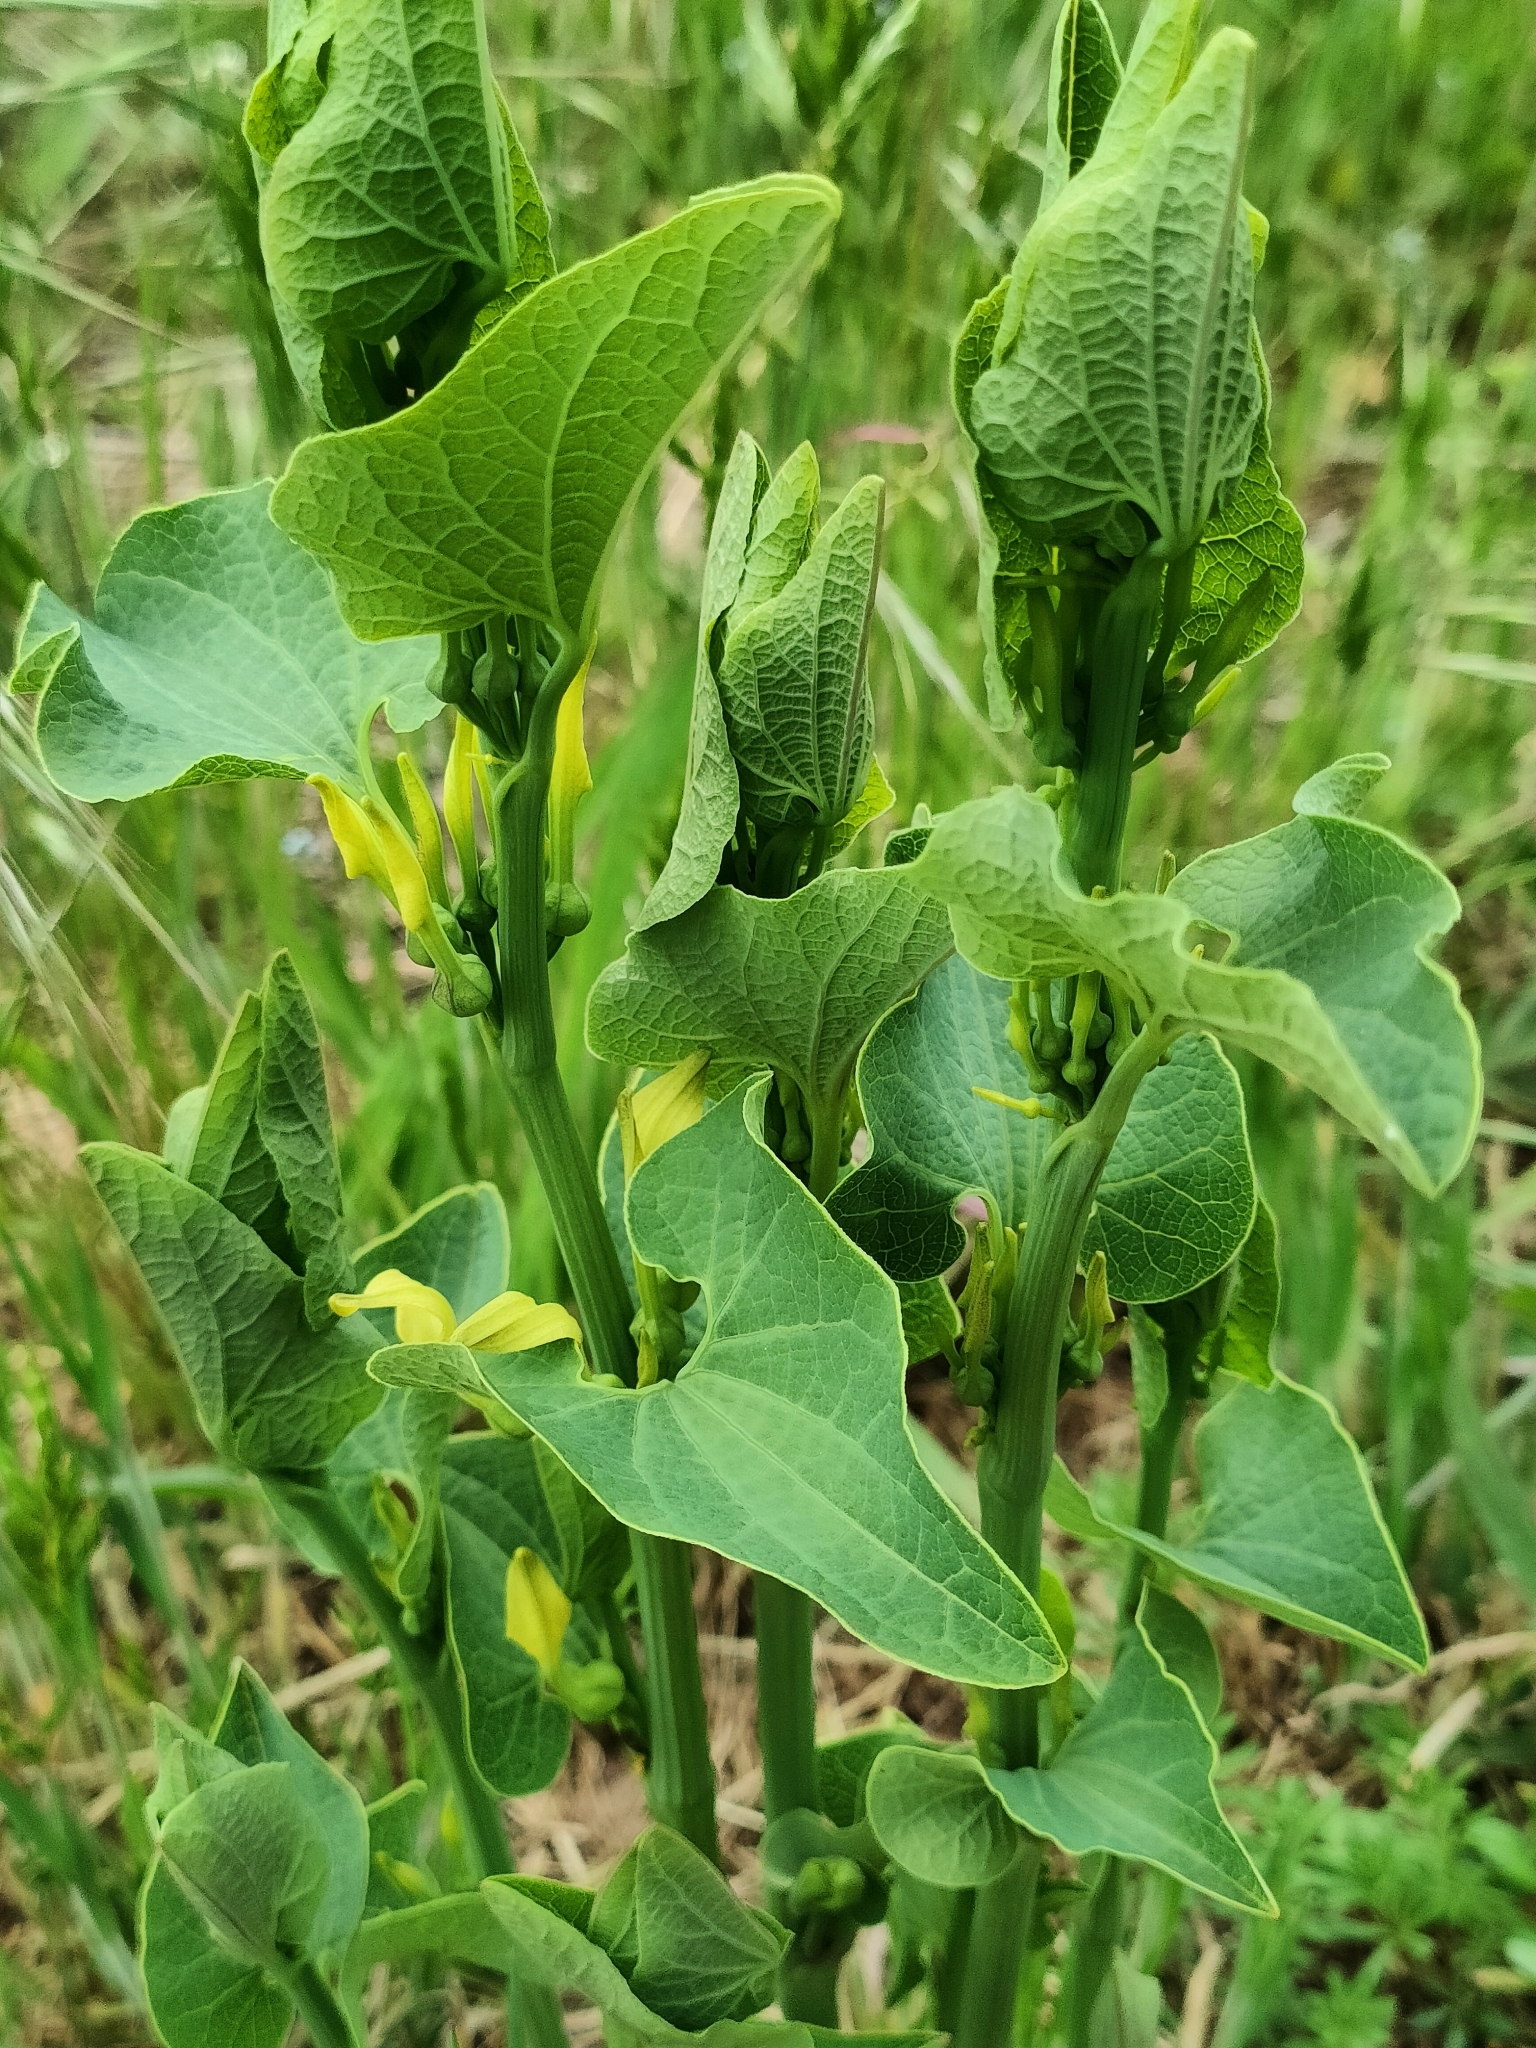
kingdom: Plantae
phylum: Tracheophyta
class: Magnoliopsida
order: Piperales
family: Aristolochiaceae
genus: Aristolochia
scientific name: Aristolochia clematitis
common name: Birthwort
